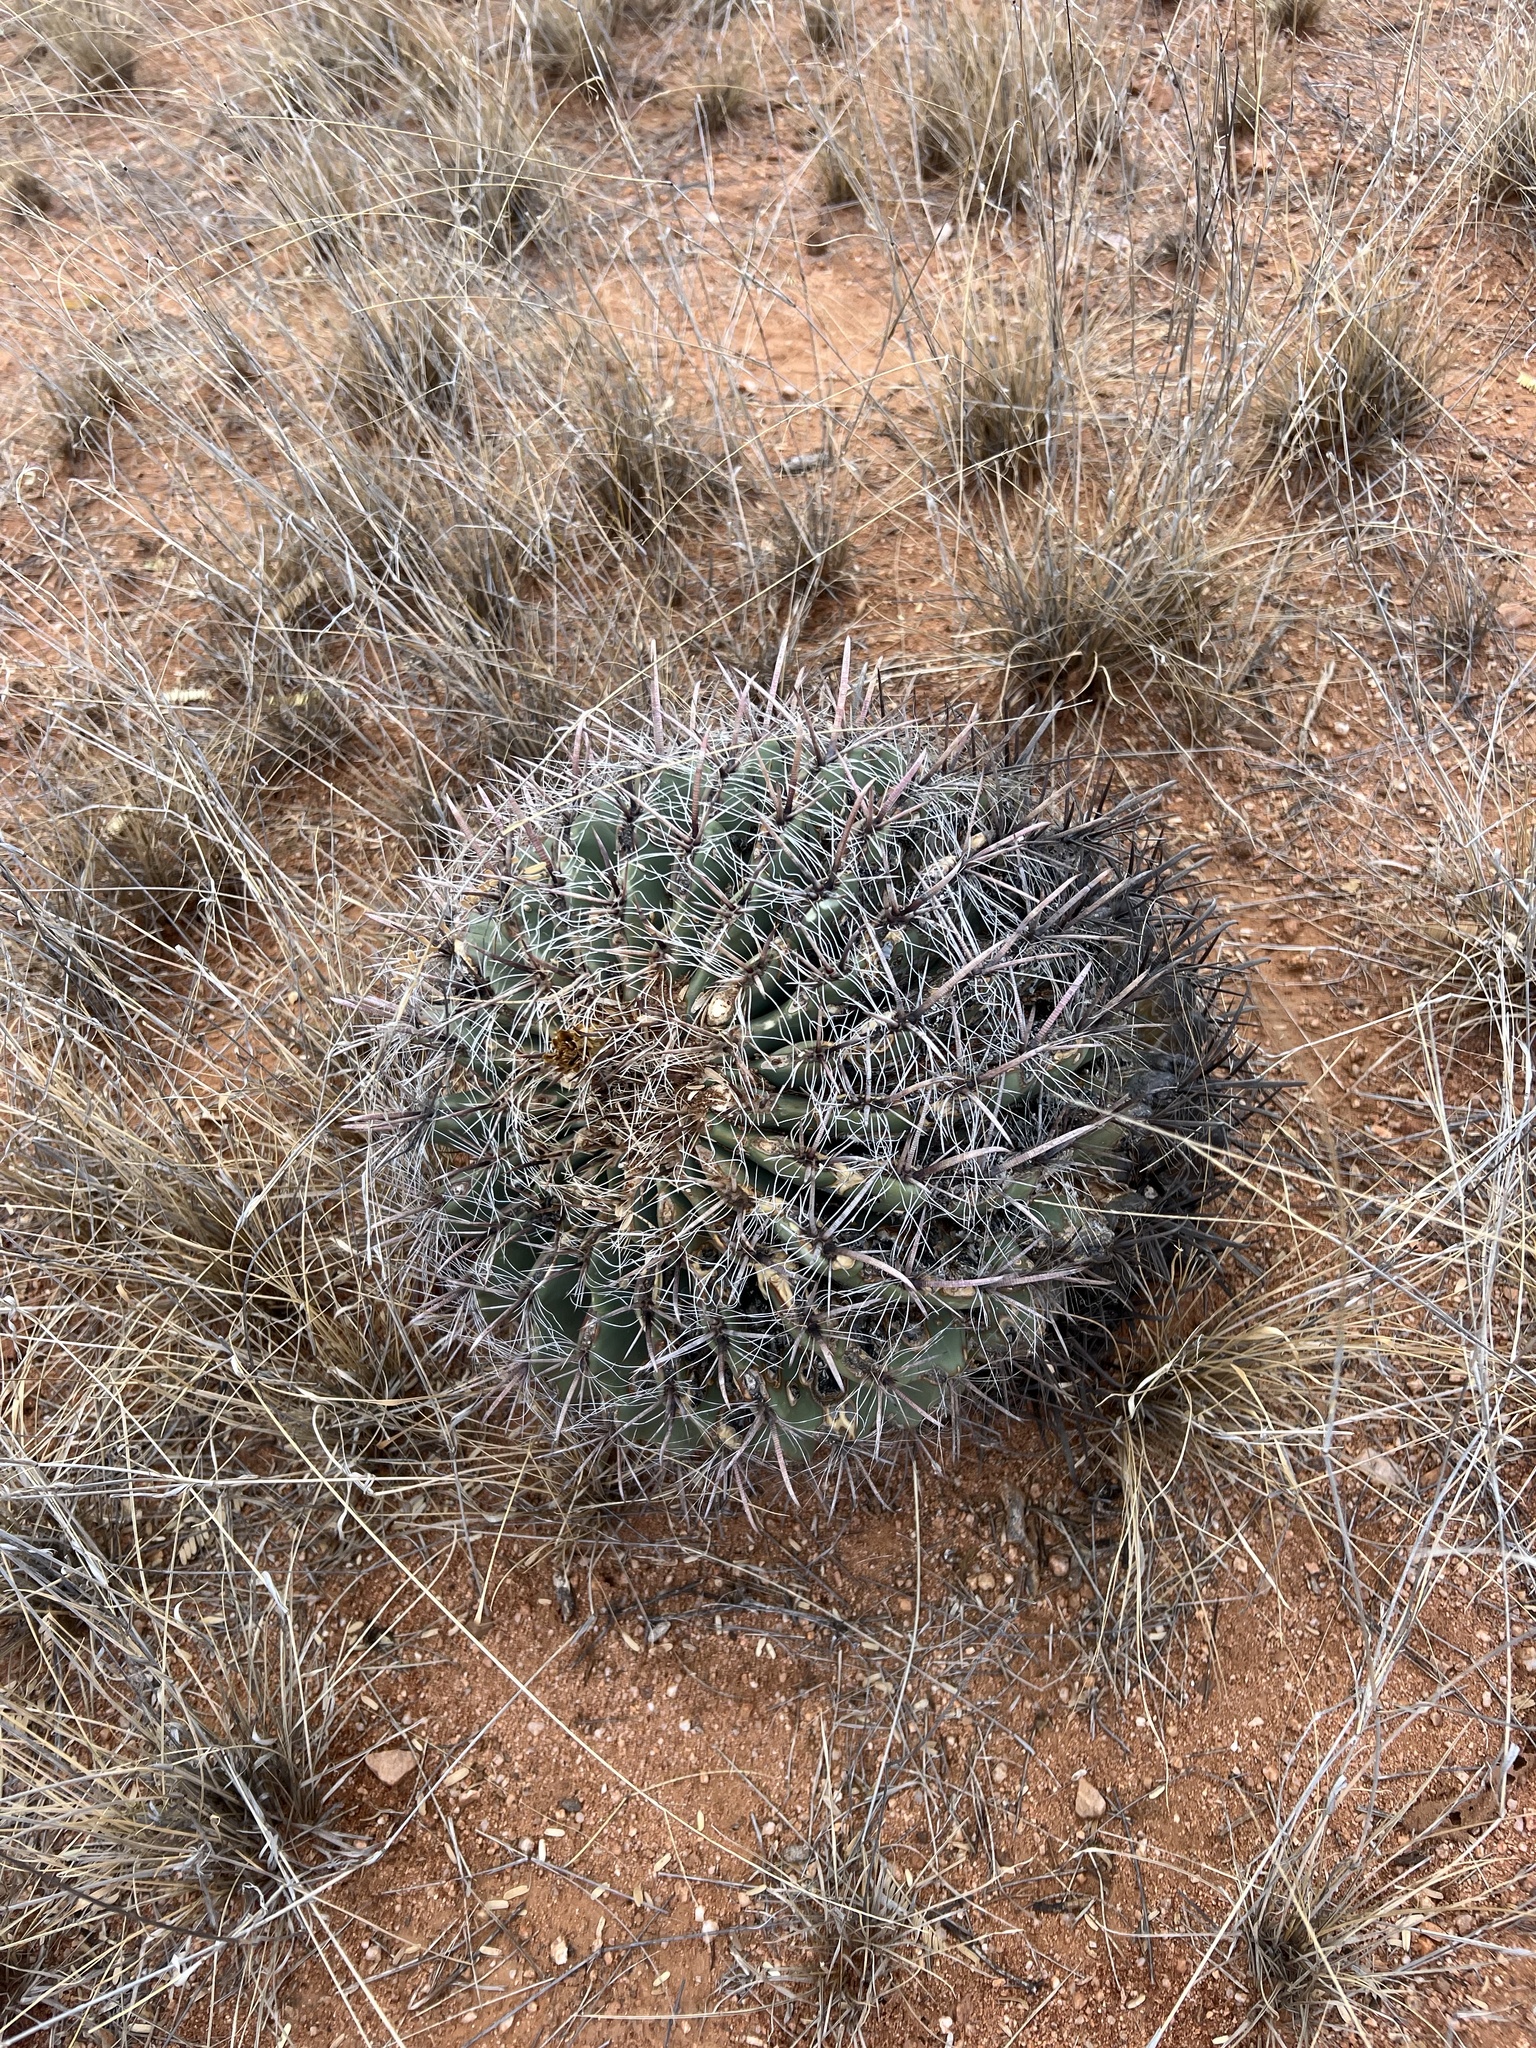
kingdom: Plantae
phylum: Tracheophyta
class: Magnoliopsida
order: Caryophyllales
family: Cactaceae
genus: Ferocactus
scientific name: Ferocactus wislizeni
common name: Candy barrel cactus
